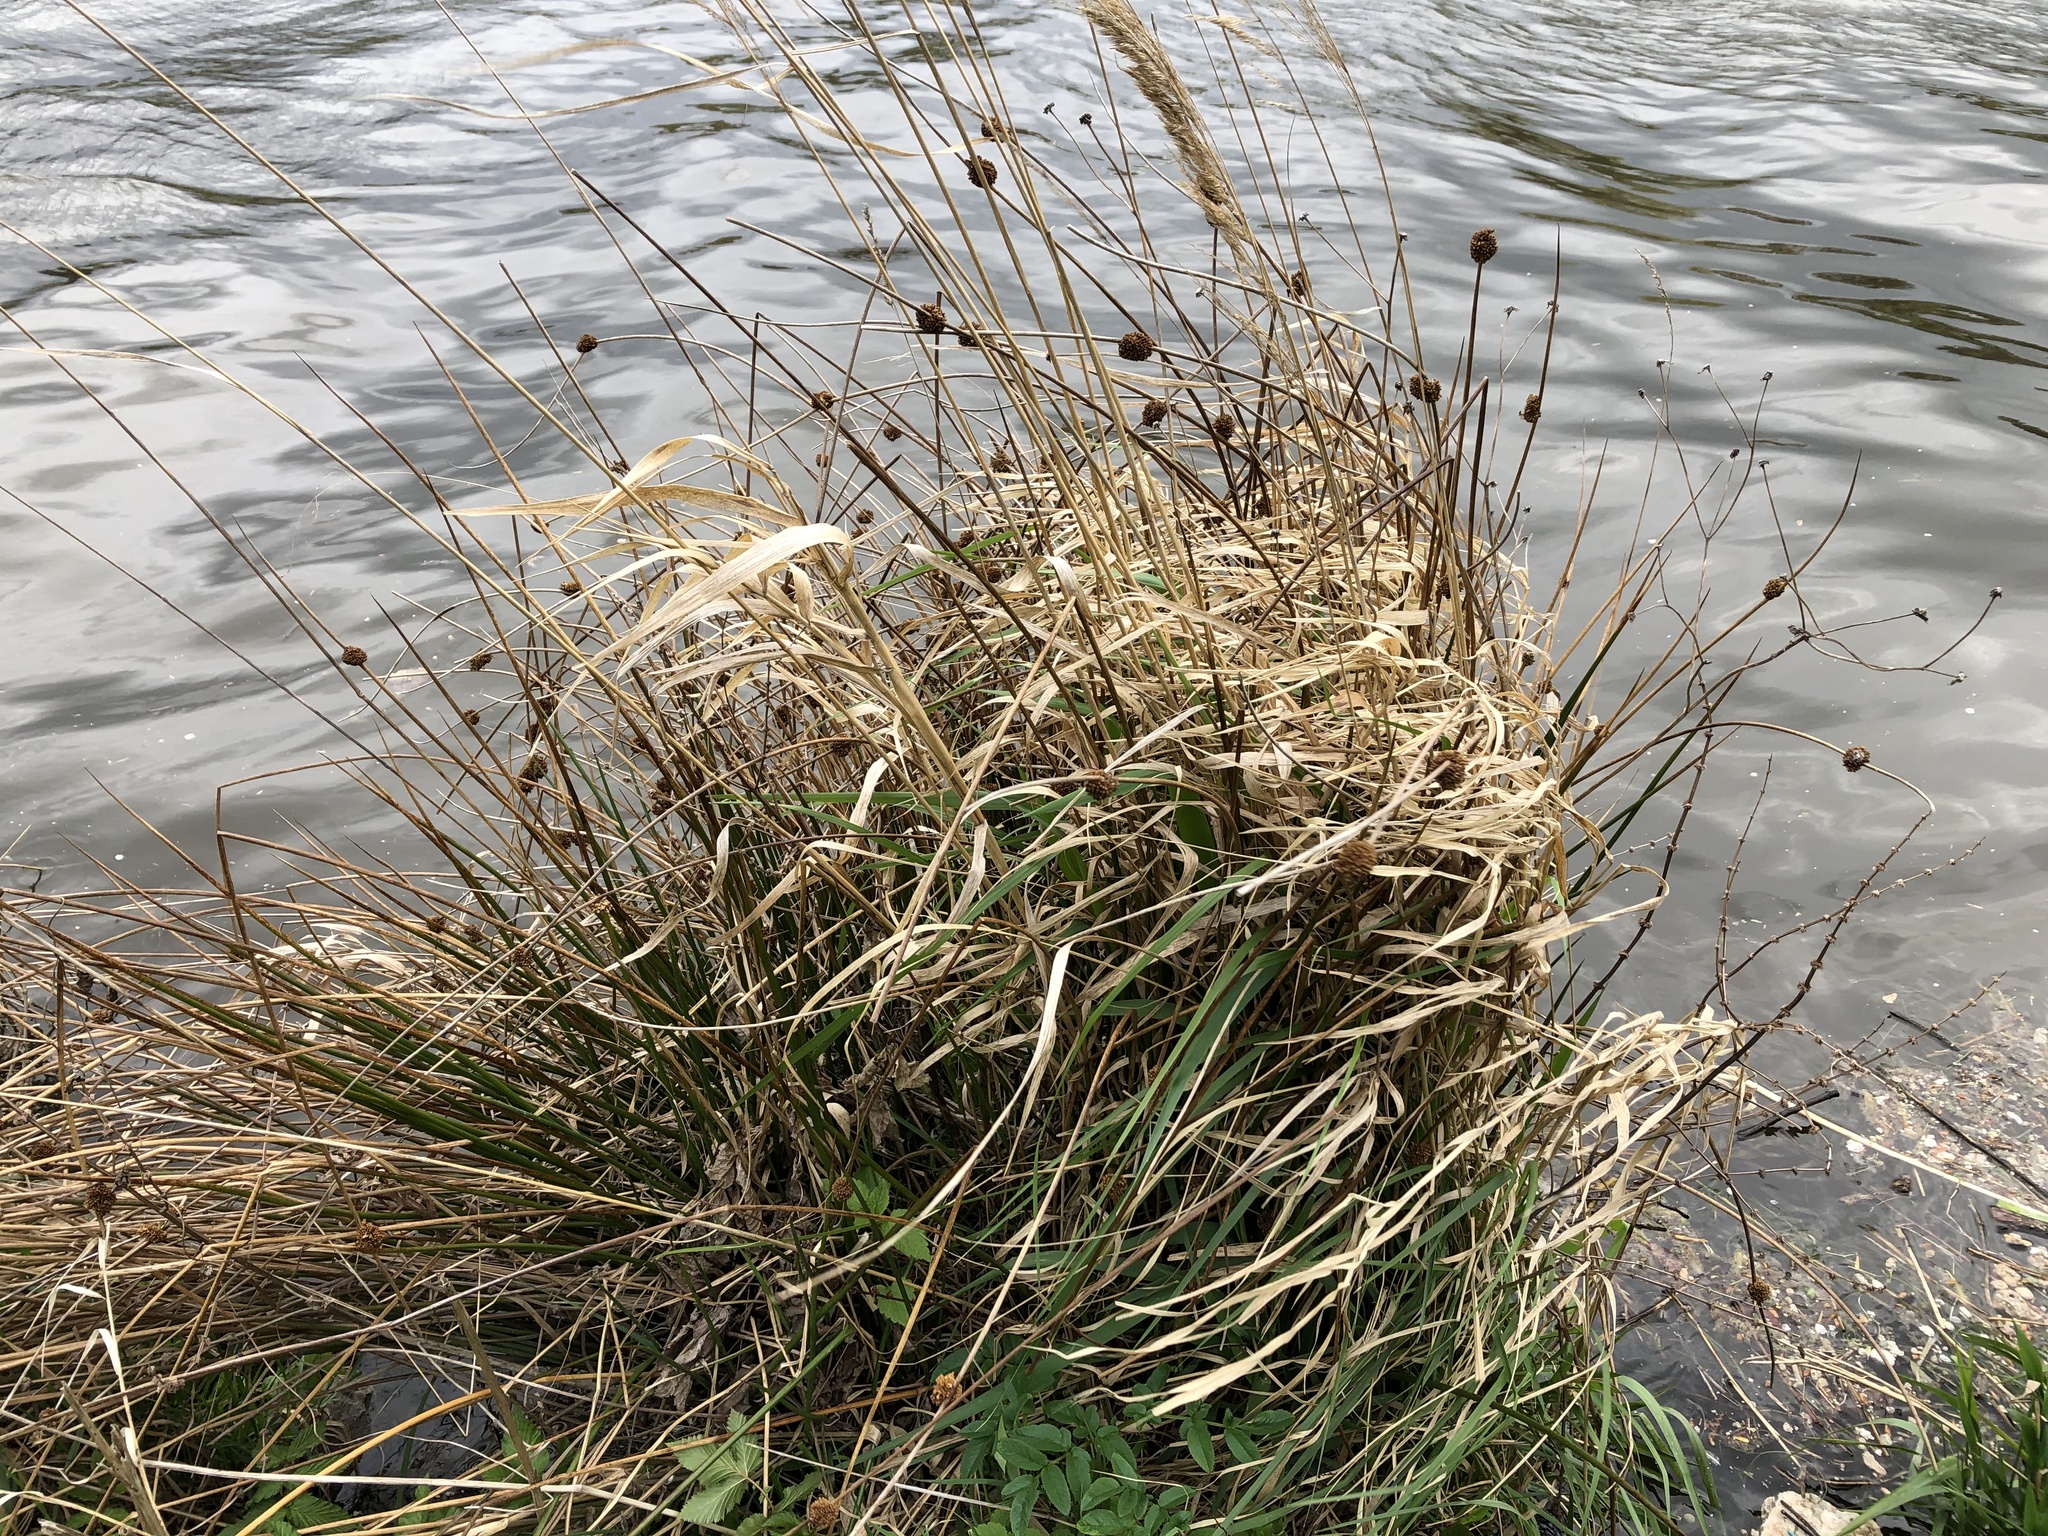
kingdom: Plantae
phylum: Tracheophyta
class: Liliopsida
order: Poales
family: Poaceae
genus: Calamagrostis
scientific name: Calamagrostis epigejos
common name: Wood small-reed
